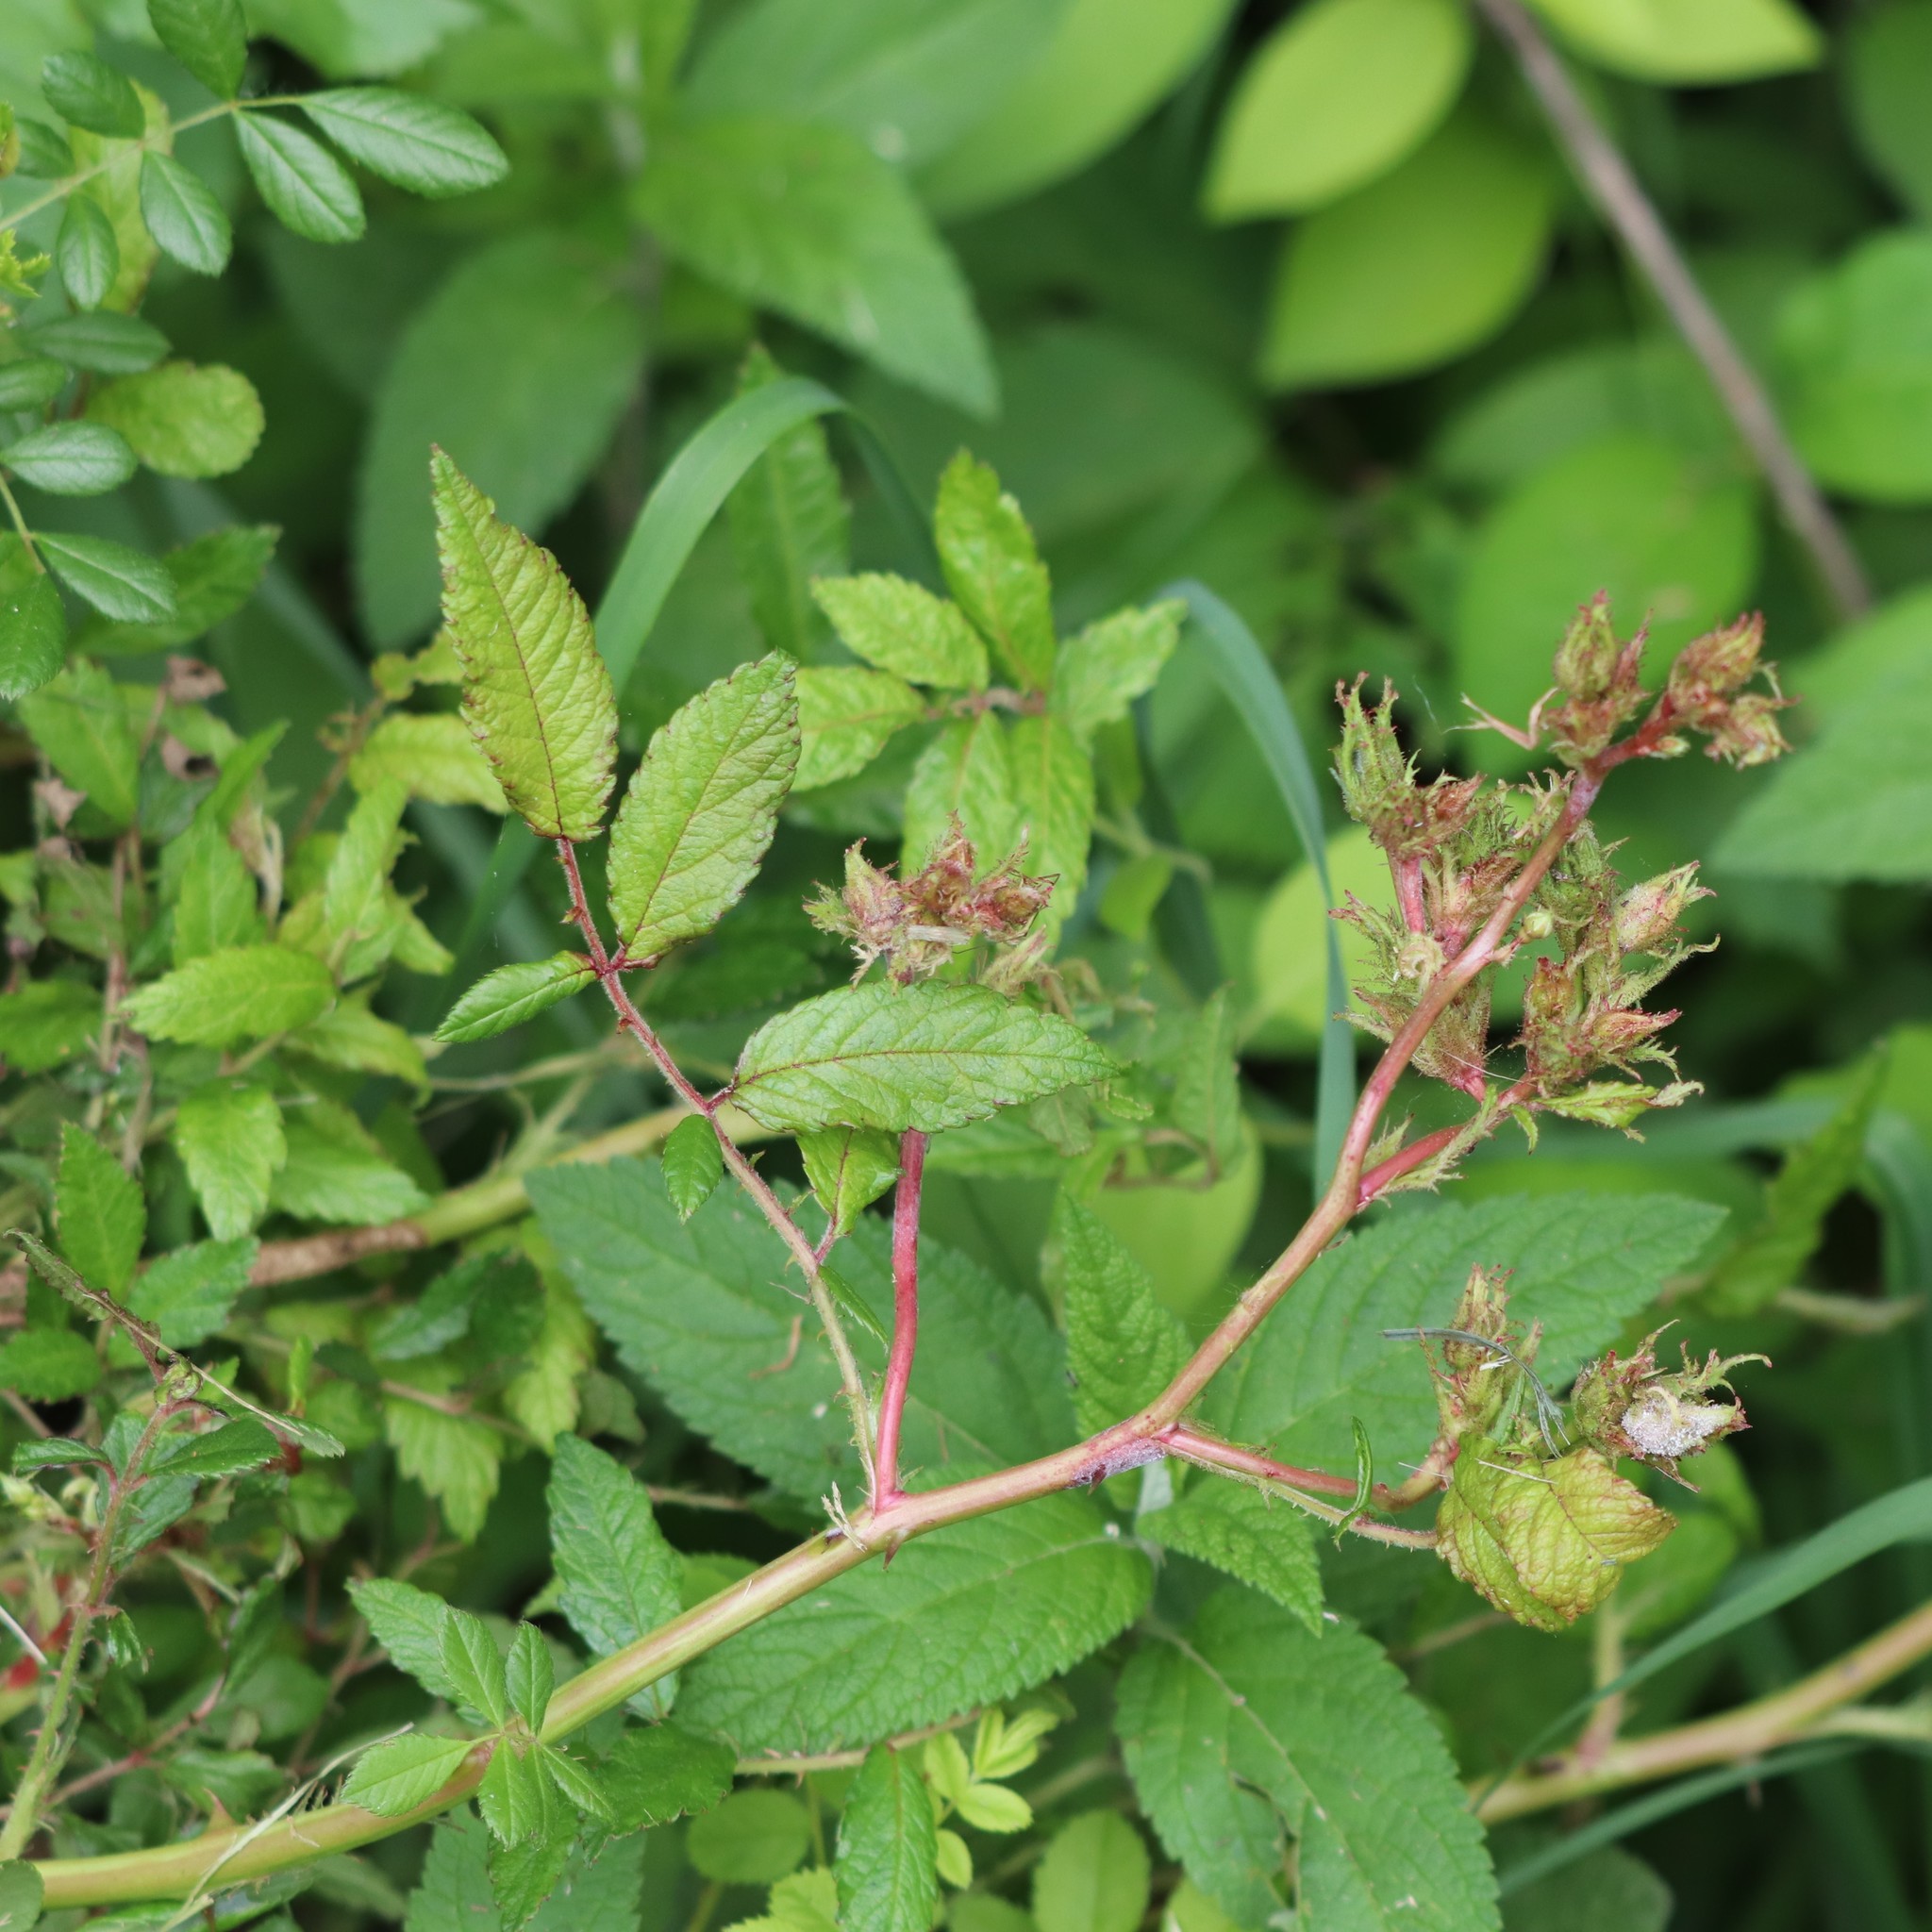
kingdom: Viruses
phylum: Negarnaviricota
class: Ellioviricetes
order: Bunyavirales
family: Fimoviridae
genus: Emaravirus
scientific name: Emaravirus rosae
